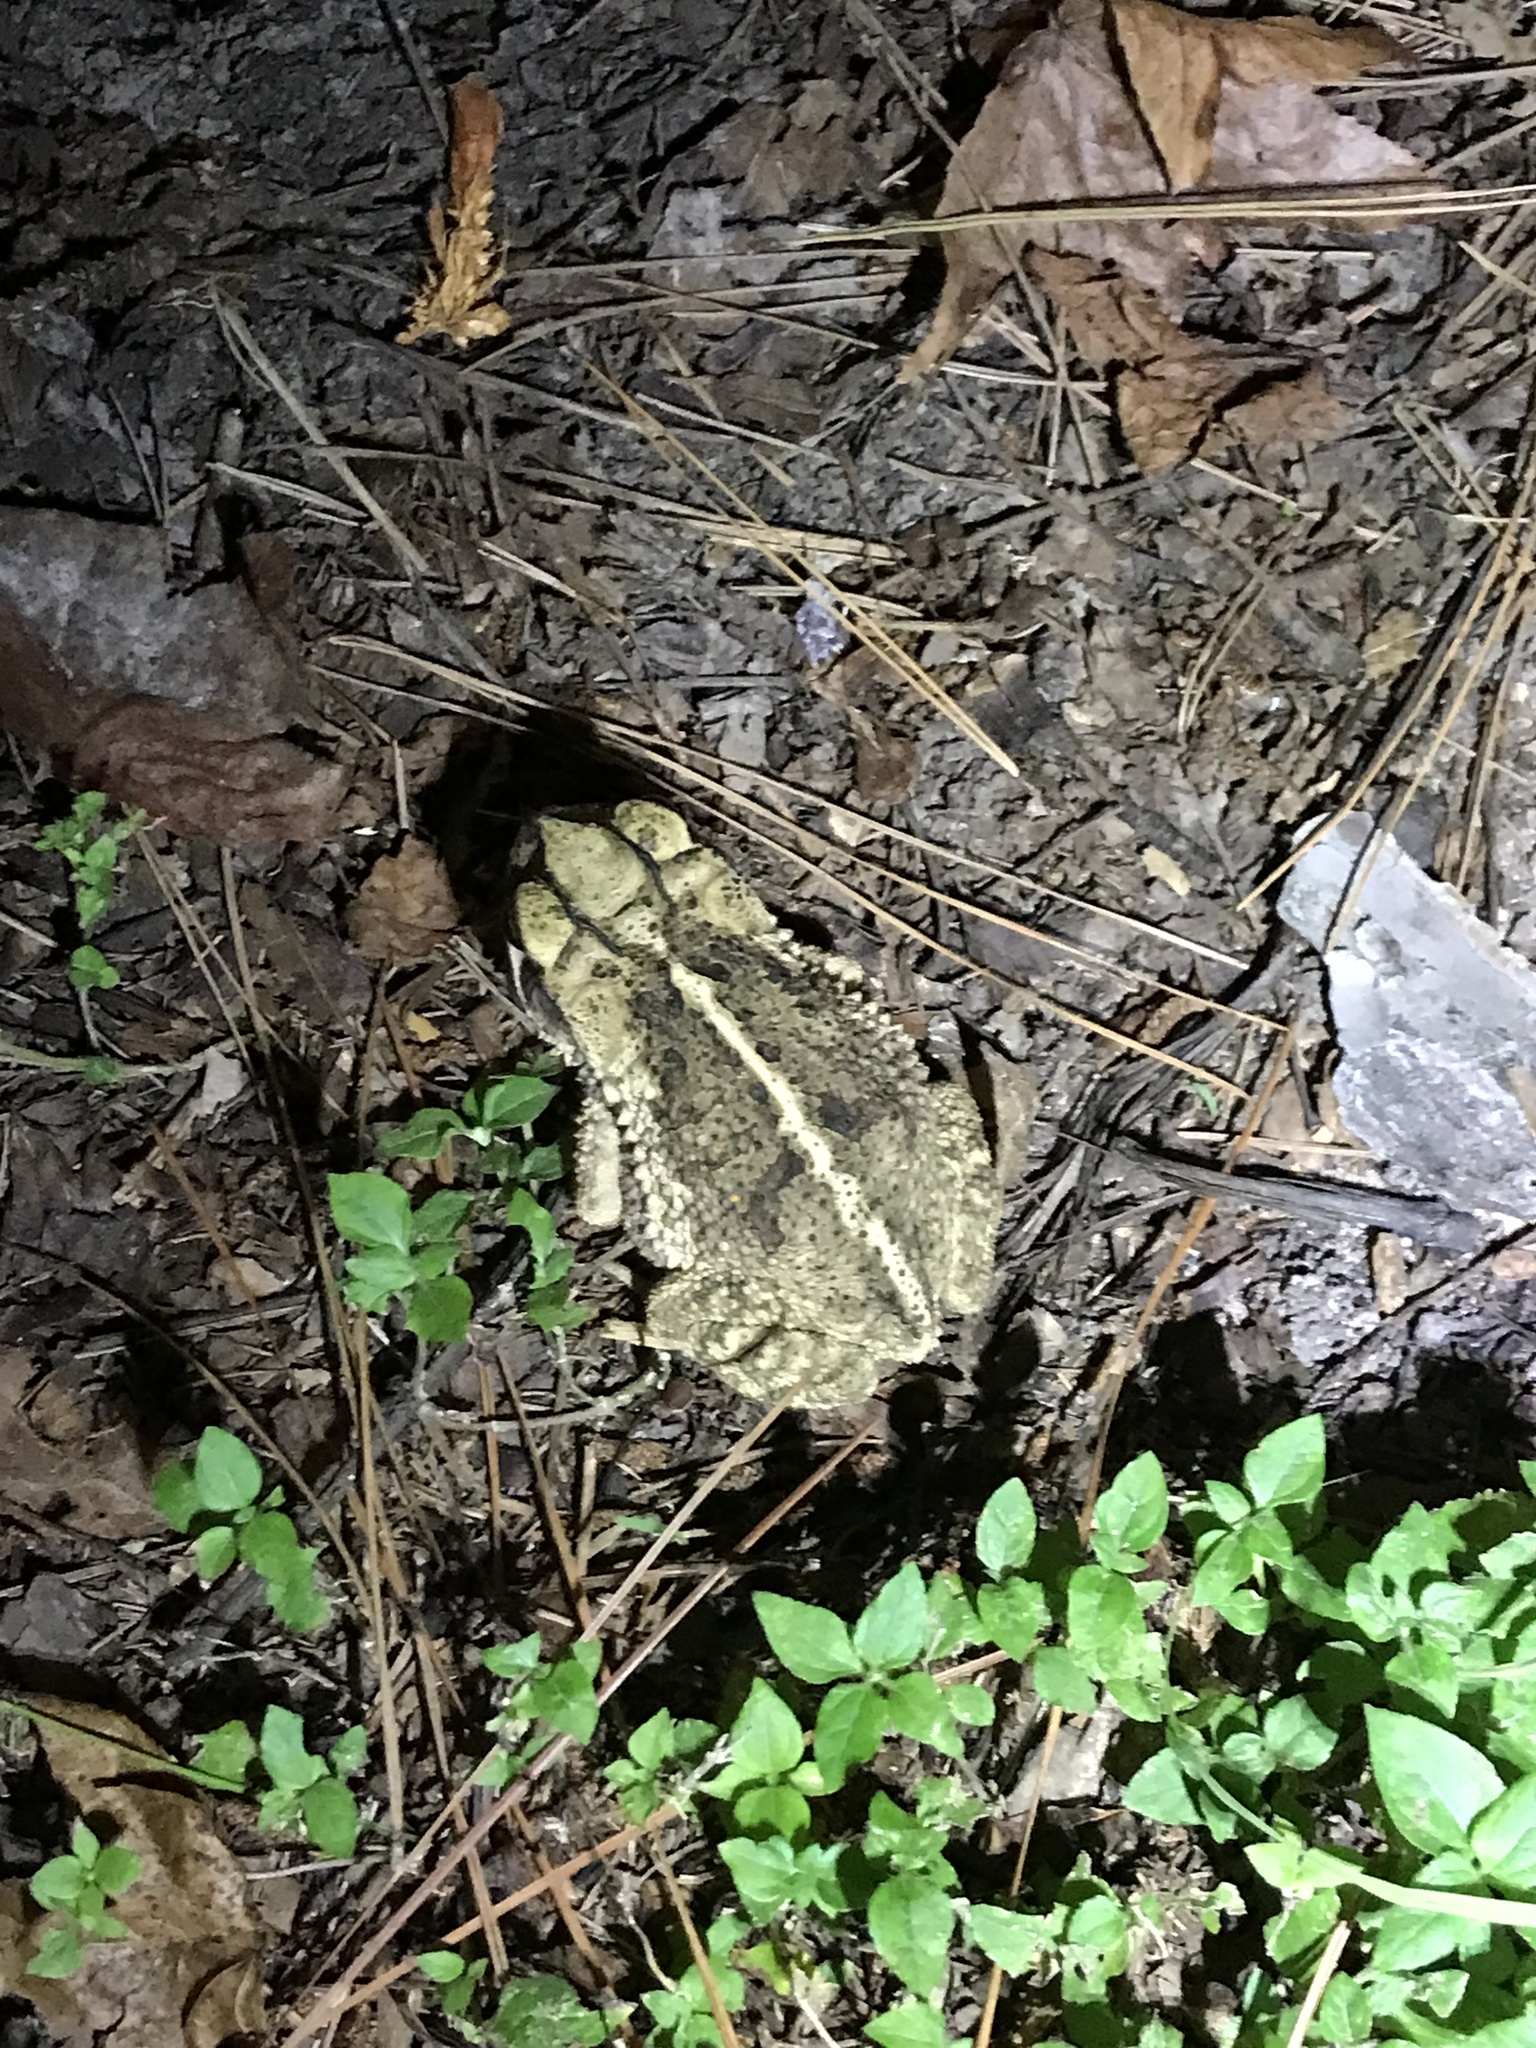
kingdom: Animalia
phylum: Chordata
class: Amphibia
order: Anura
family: Bufonidae
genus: Incilius
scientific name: Incilius nebulifer
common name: Gulf coast toad
